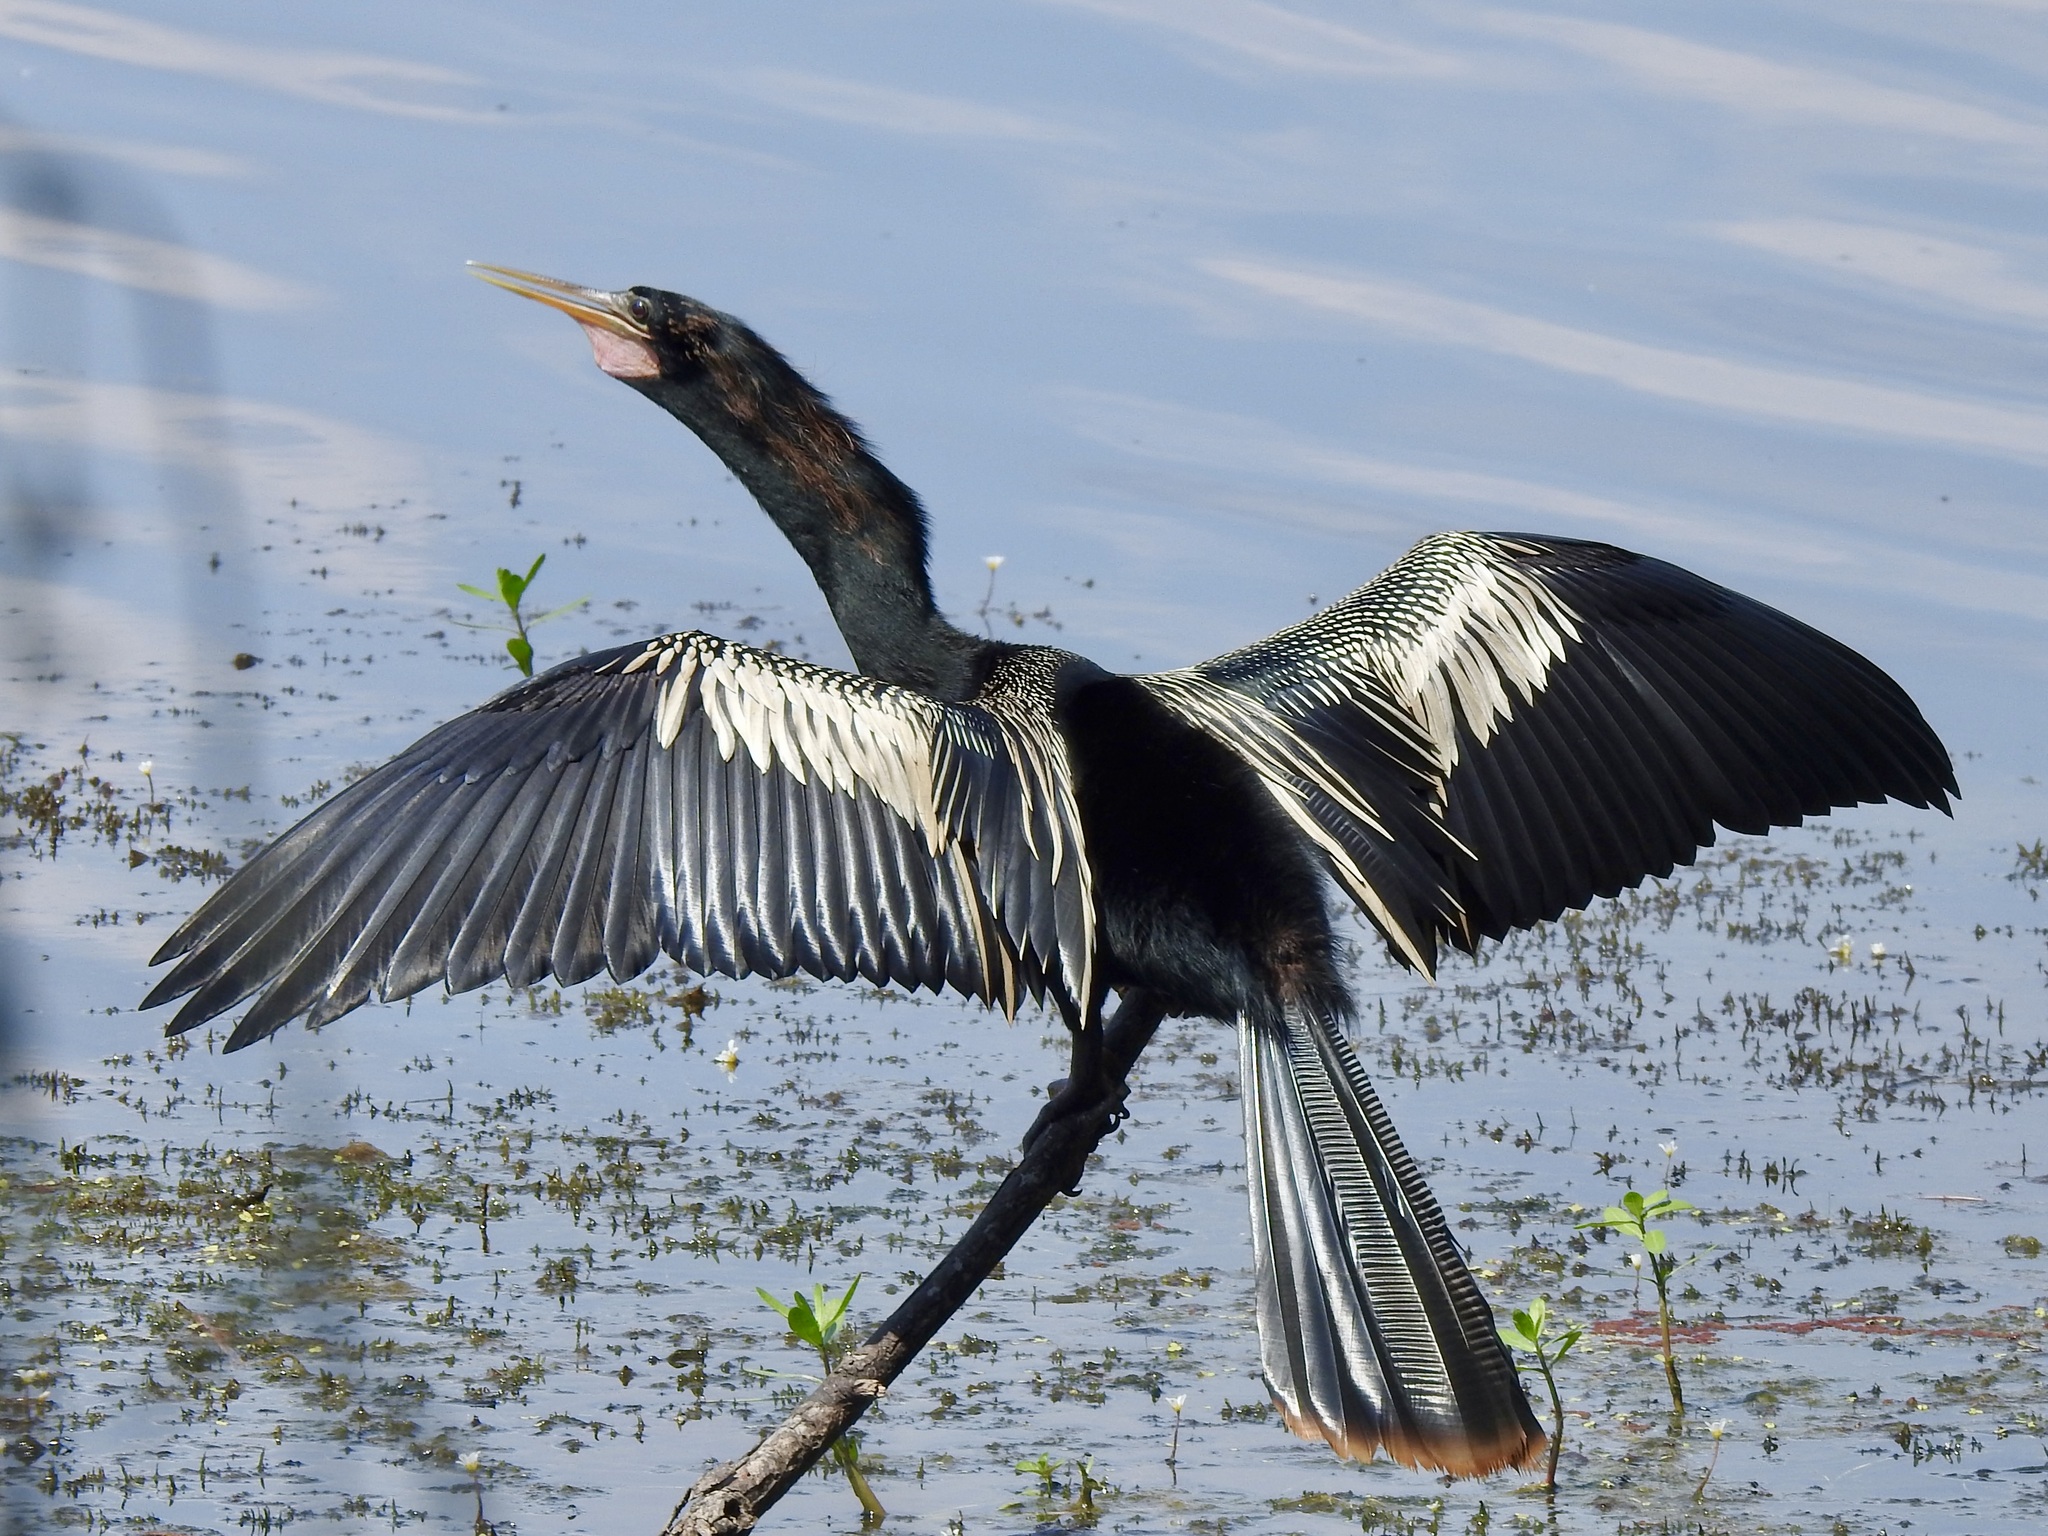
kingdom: Animalia
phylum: Chordata
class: Aves
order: Suliformes
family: Anhingidae
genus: Anhinga
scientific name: Anhinga anhinga
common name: Anhinga
